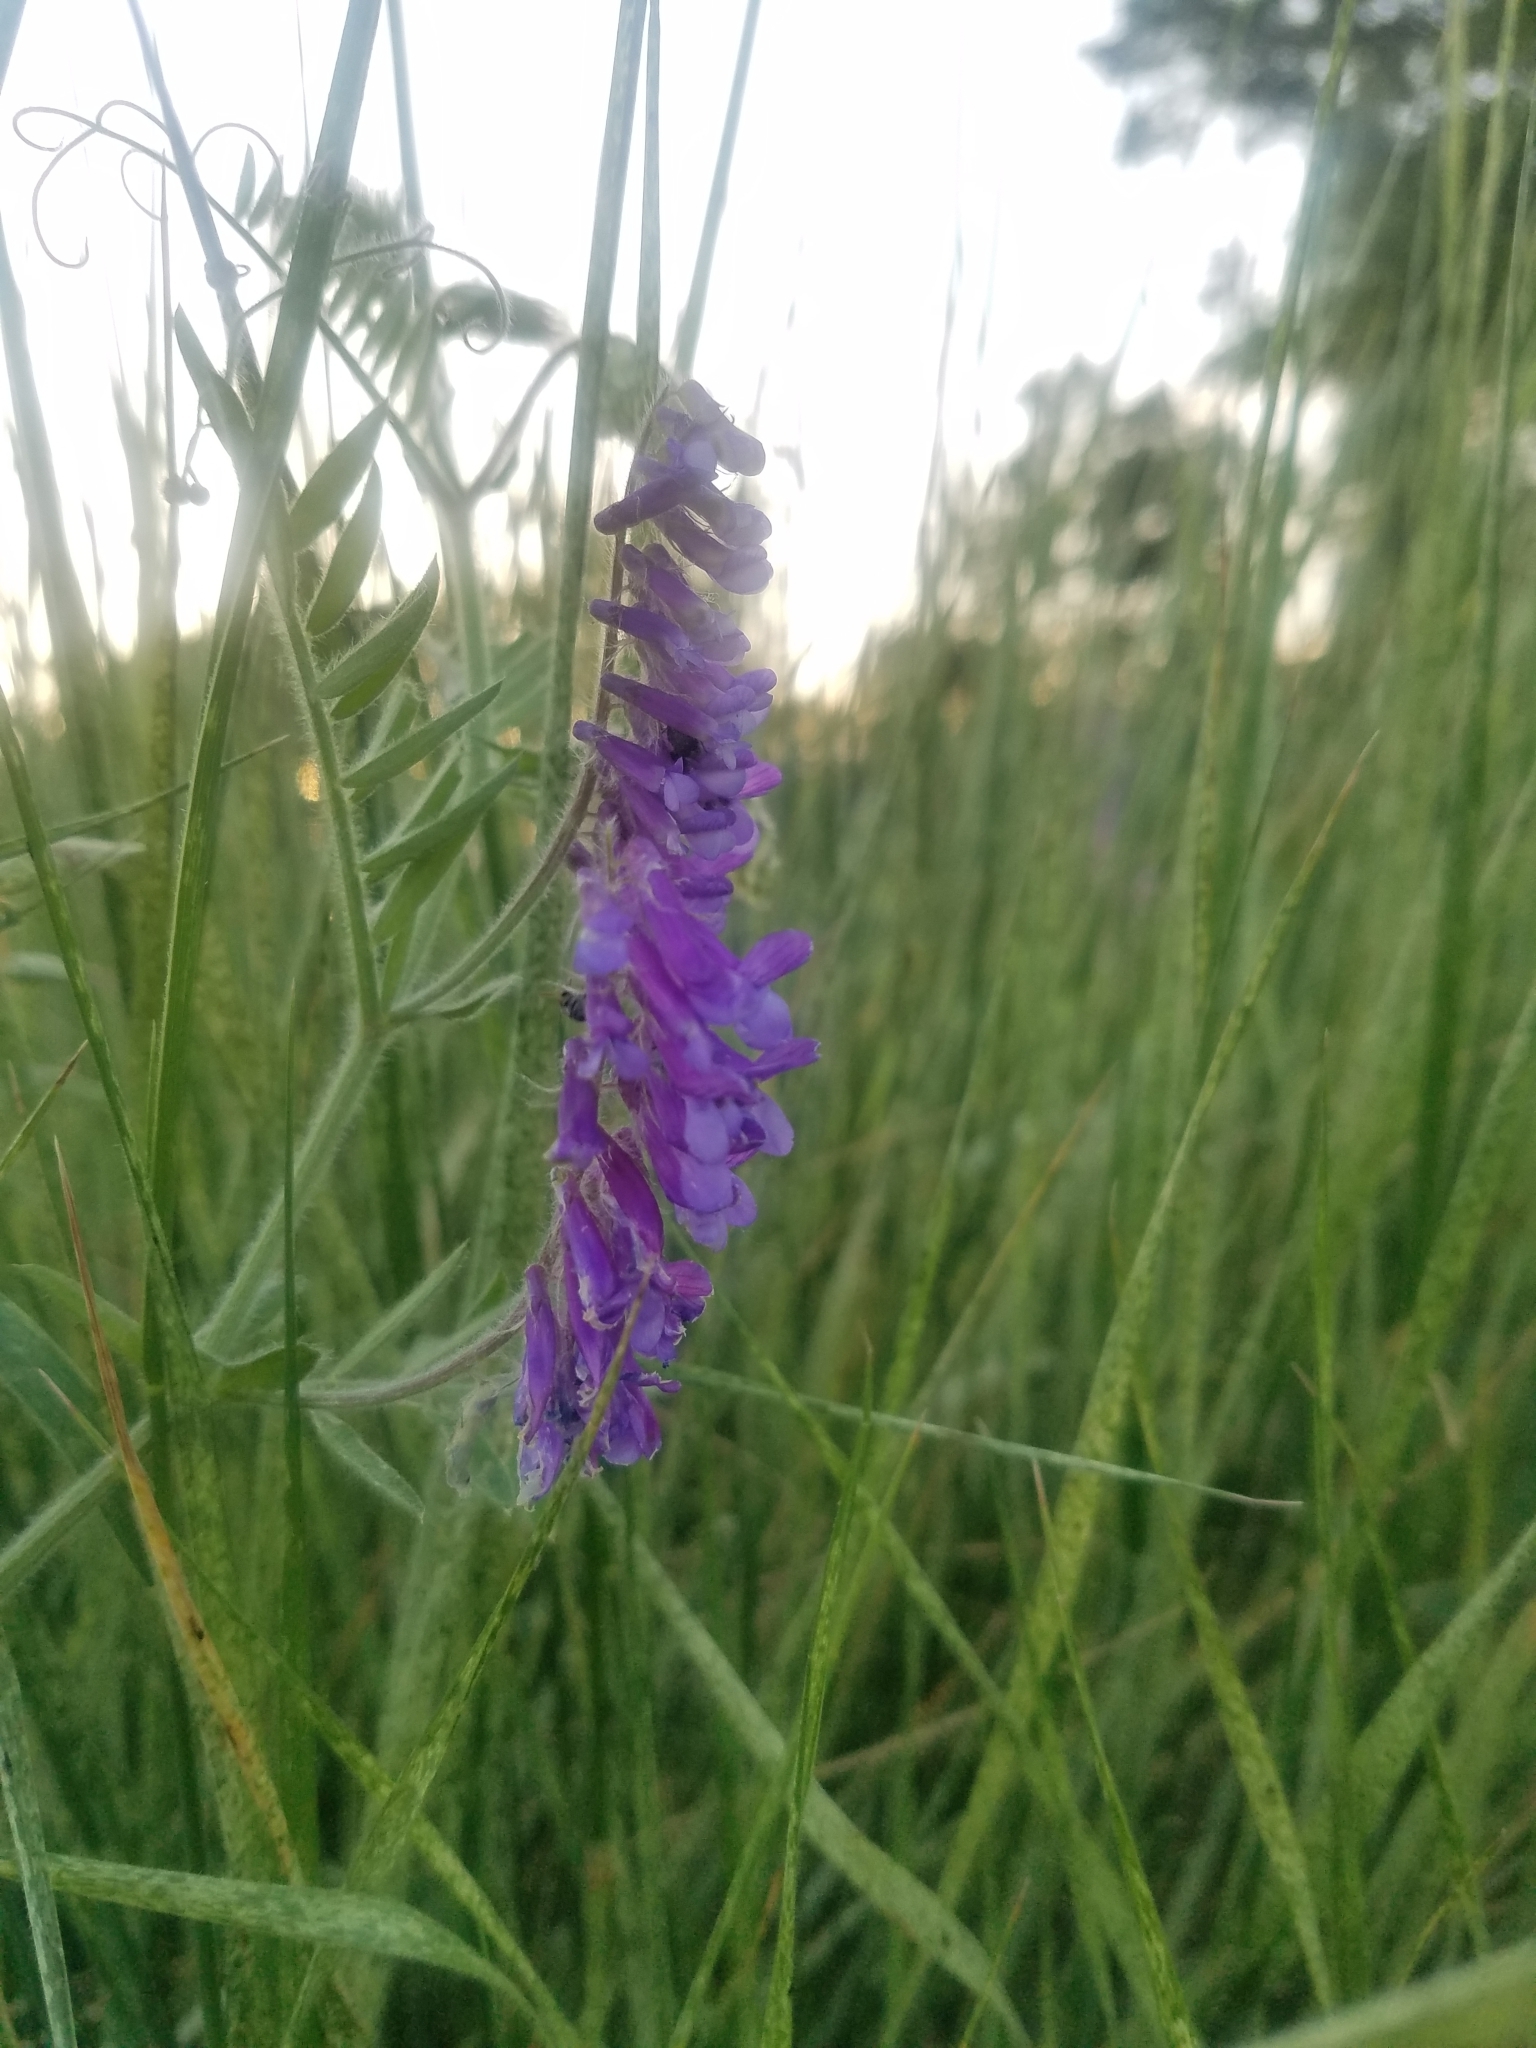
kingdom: Plantae
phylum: Tracheophyta
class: Magnoliopsida
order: Fabales
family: Fabaceae
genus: Vicia
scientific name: Vicia villosa
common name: Fodder vetch
